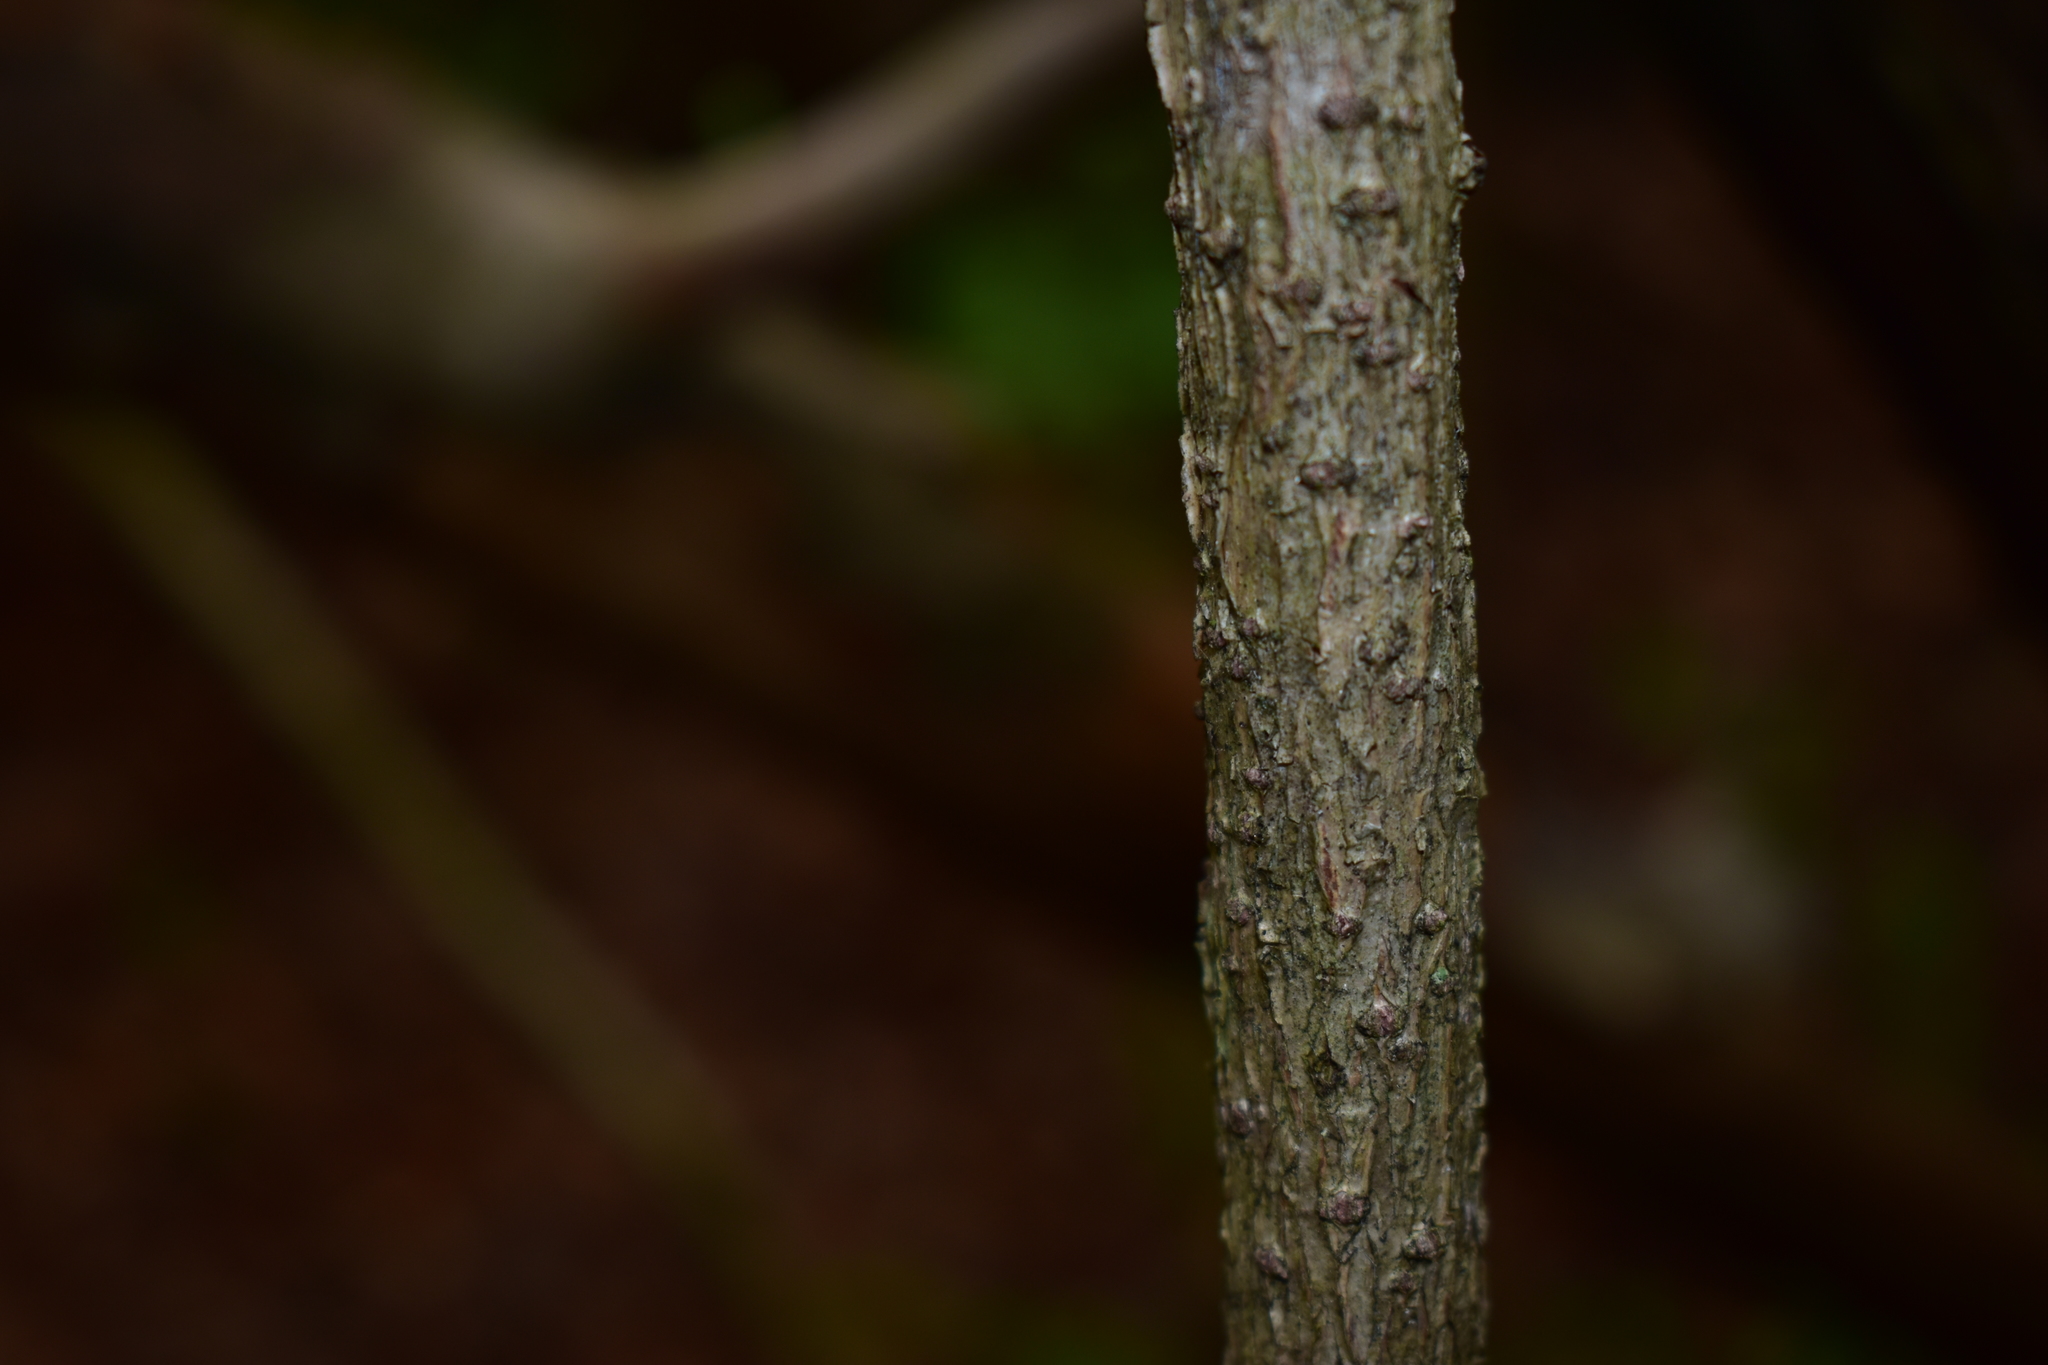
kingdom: Plantae
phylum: Tracheophyta
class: Magnoliopsida
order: Celastrales
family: Celastraceae
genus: Celastrus
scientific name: Celastrus orbiculatus
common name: Oriental bittersweet
